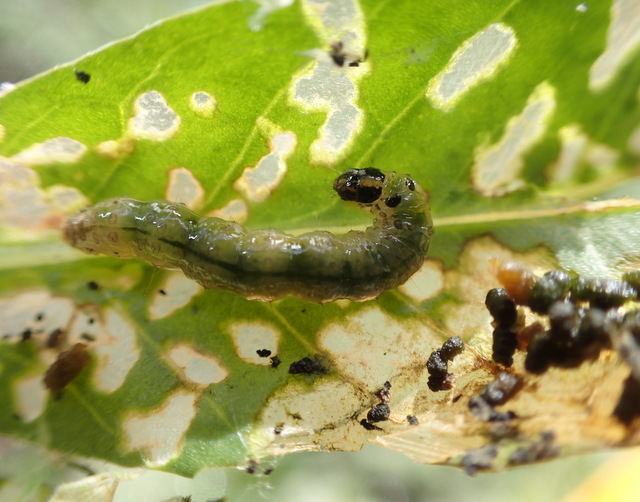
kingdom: Animalia
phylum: Arthropoda
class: Insecta
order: Lepidoptera
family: Crambidae
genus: Herpetogramma
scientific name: Herpetogramma bipunctalis
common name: Southern beet webworm
